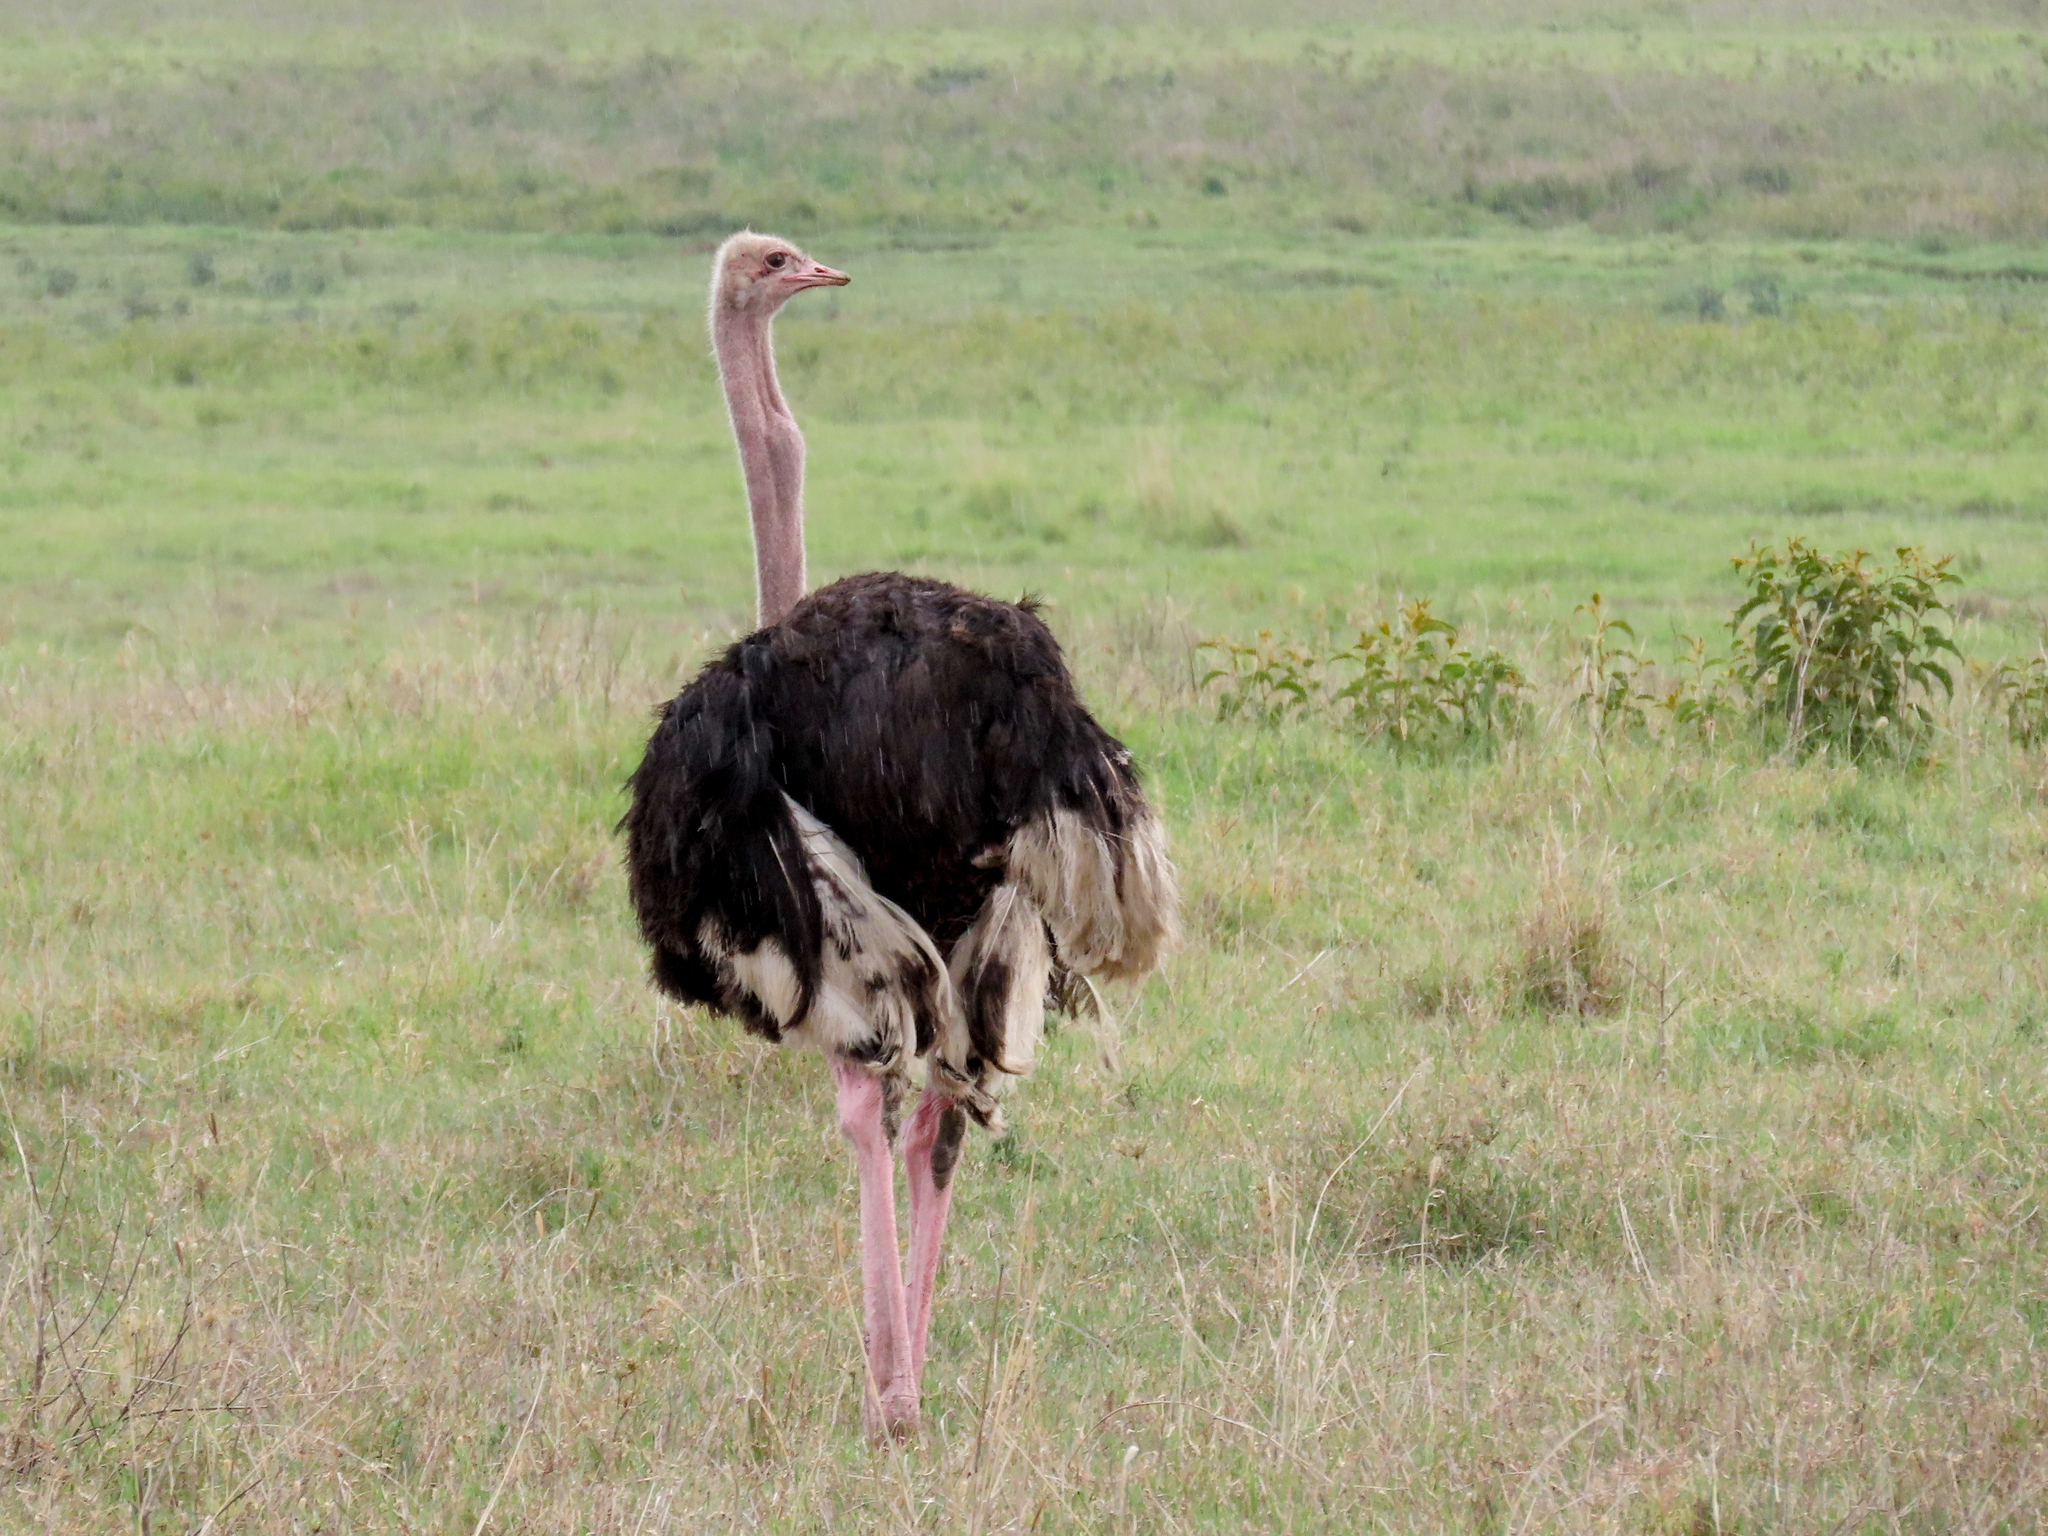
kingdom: Animalia
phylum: Chordata
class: Aves
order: Struthioniformes
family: Struthionidae
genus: Struthio
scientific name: Struthio camelus
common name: Common ostrich
